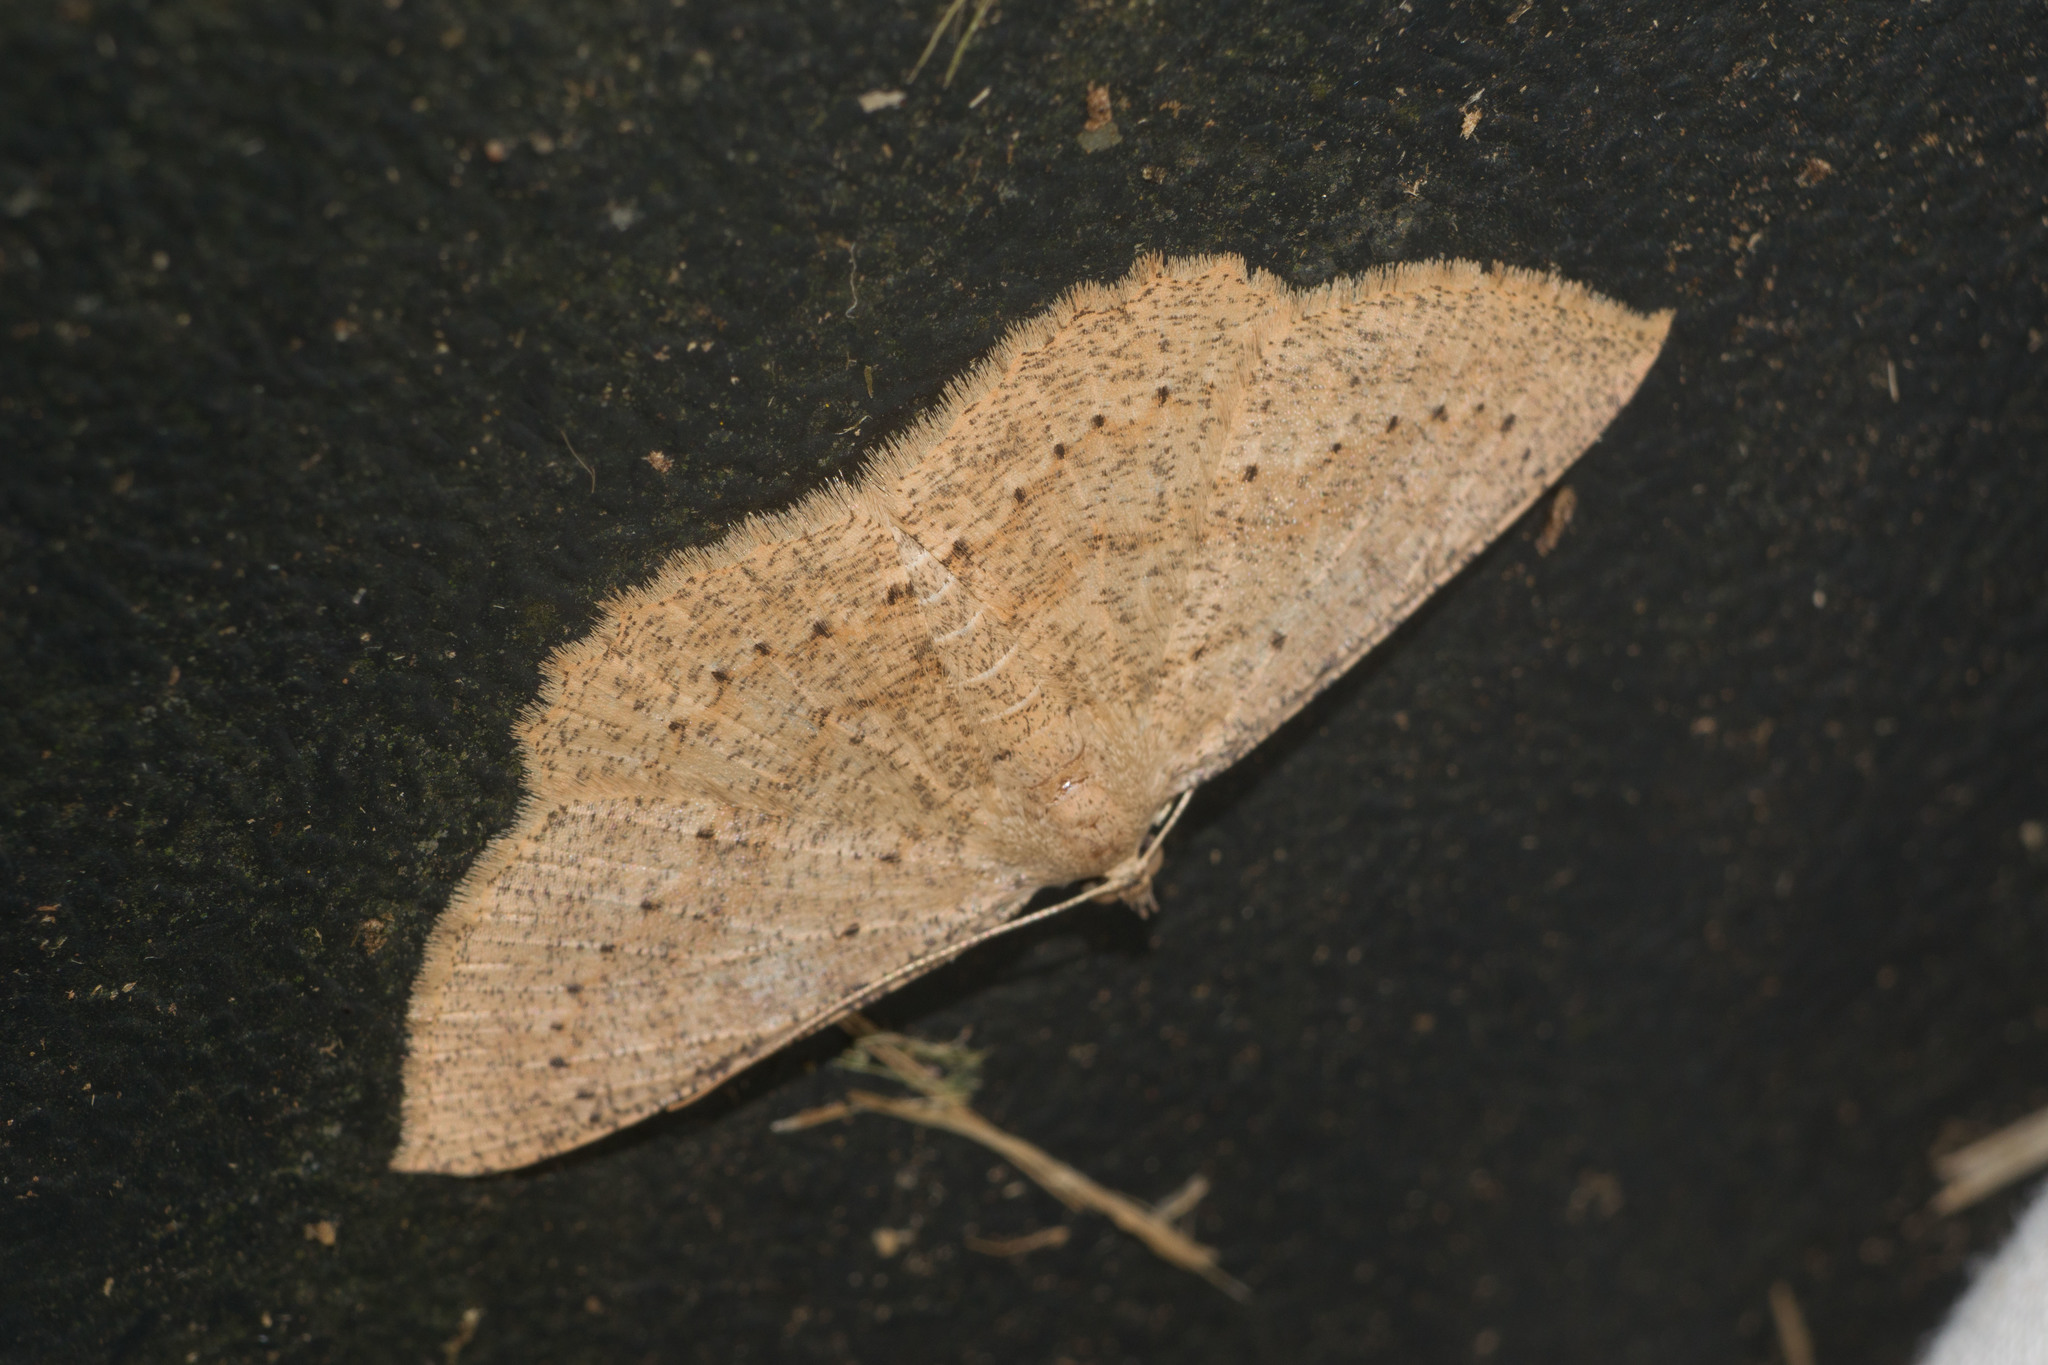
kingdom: Animalia
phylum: Arthropoda
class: Insecta
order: Lepidoptera
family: Geometridae
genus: Scotorythra
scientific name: Scotorythra corticea
